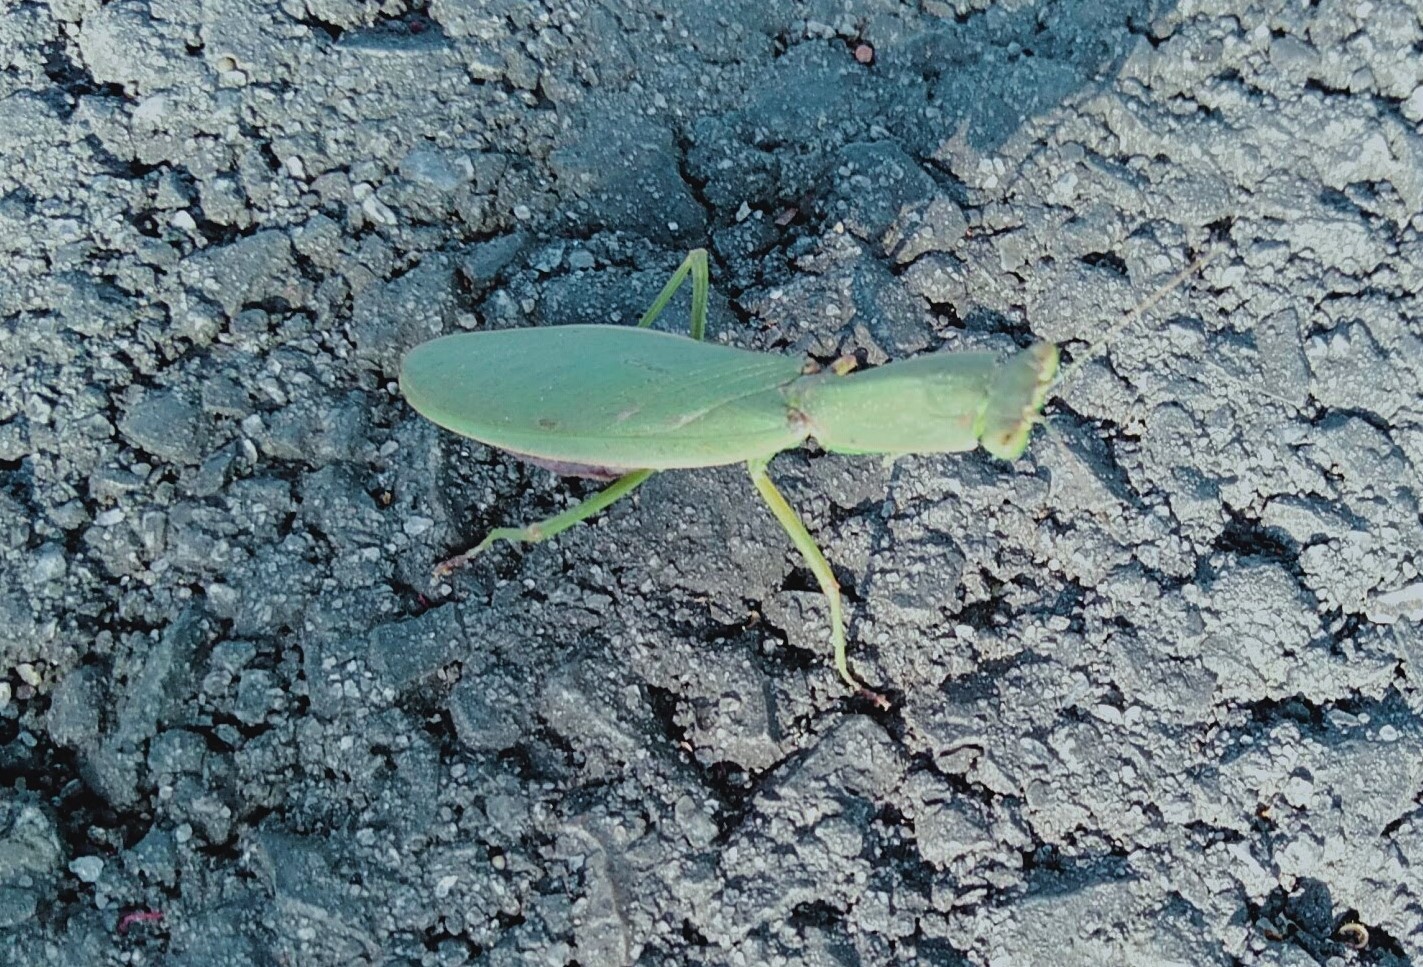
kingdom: Animalia
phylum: Arthropoda
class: Insecta
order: Mantodea
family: Mantidae
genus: Orthodera
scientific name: Orthodera ministralis
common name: Mantis
